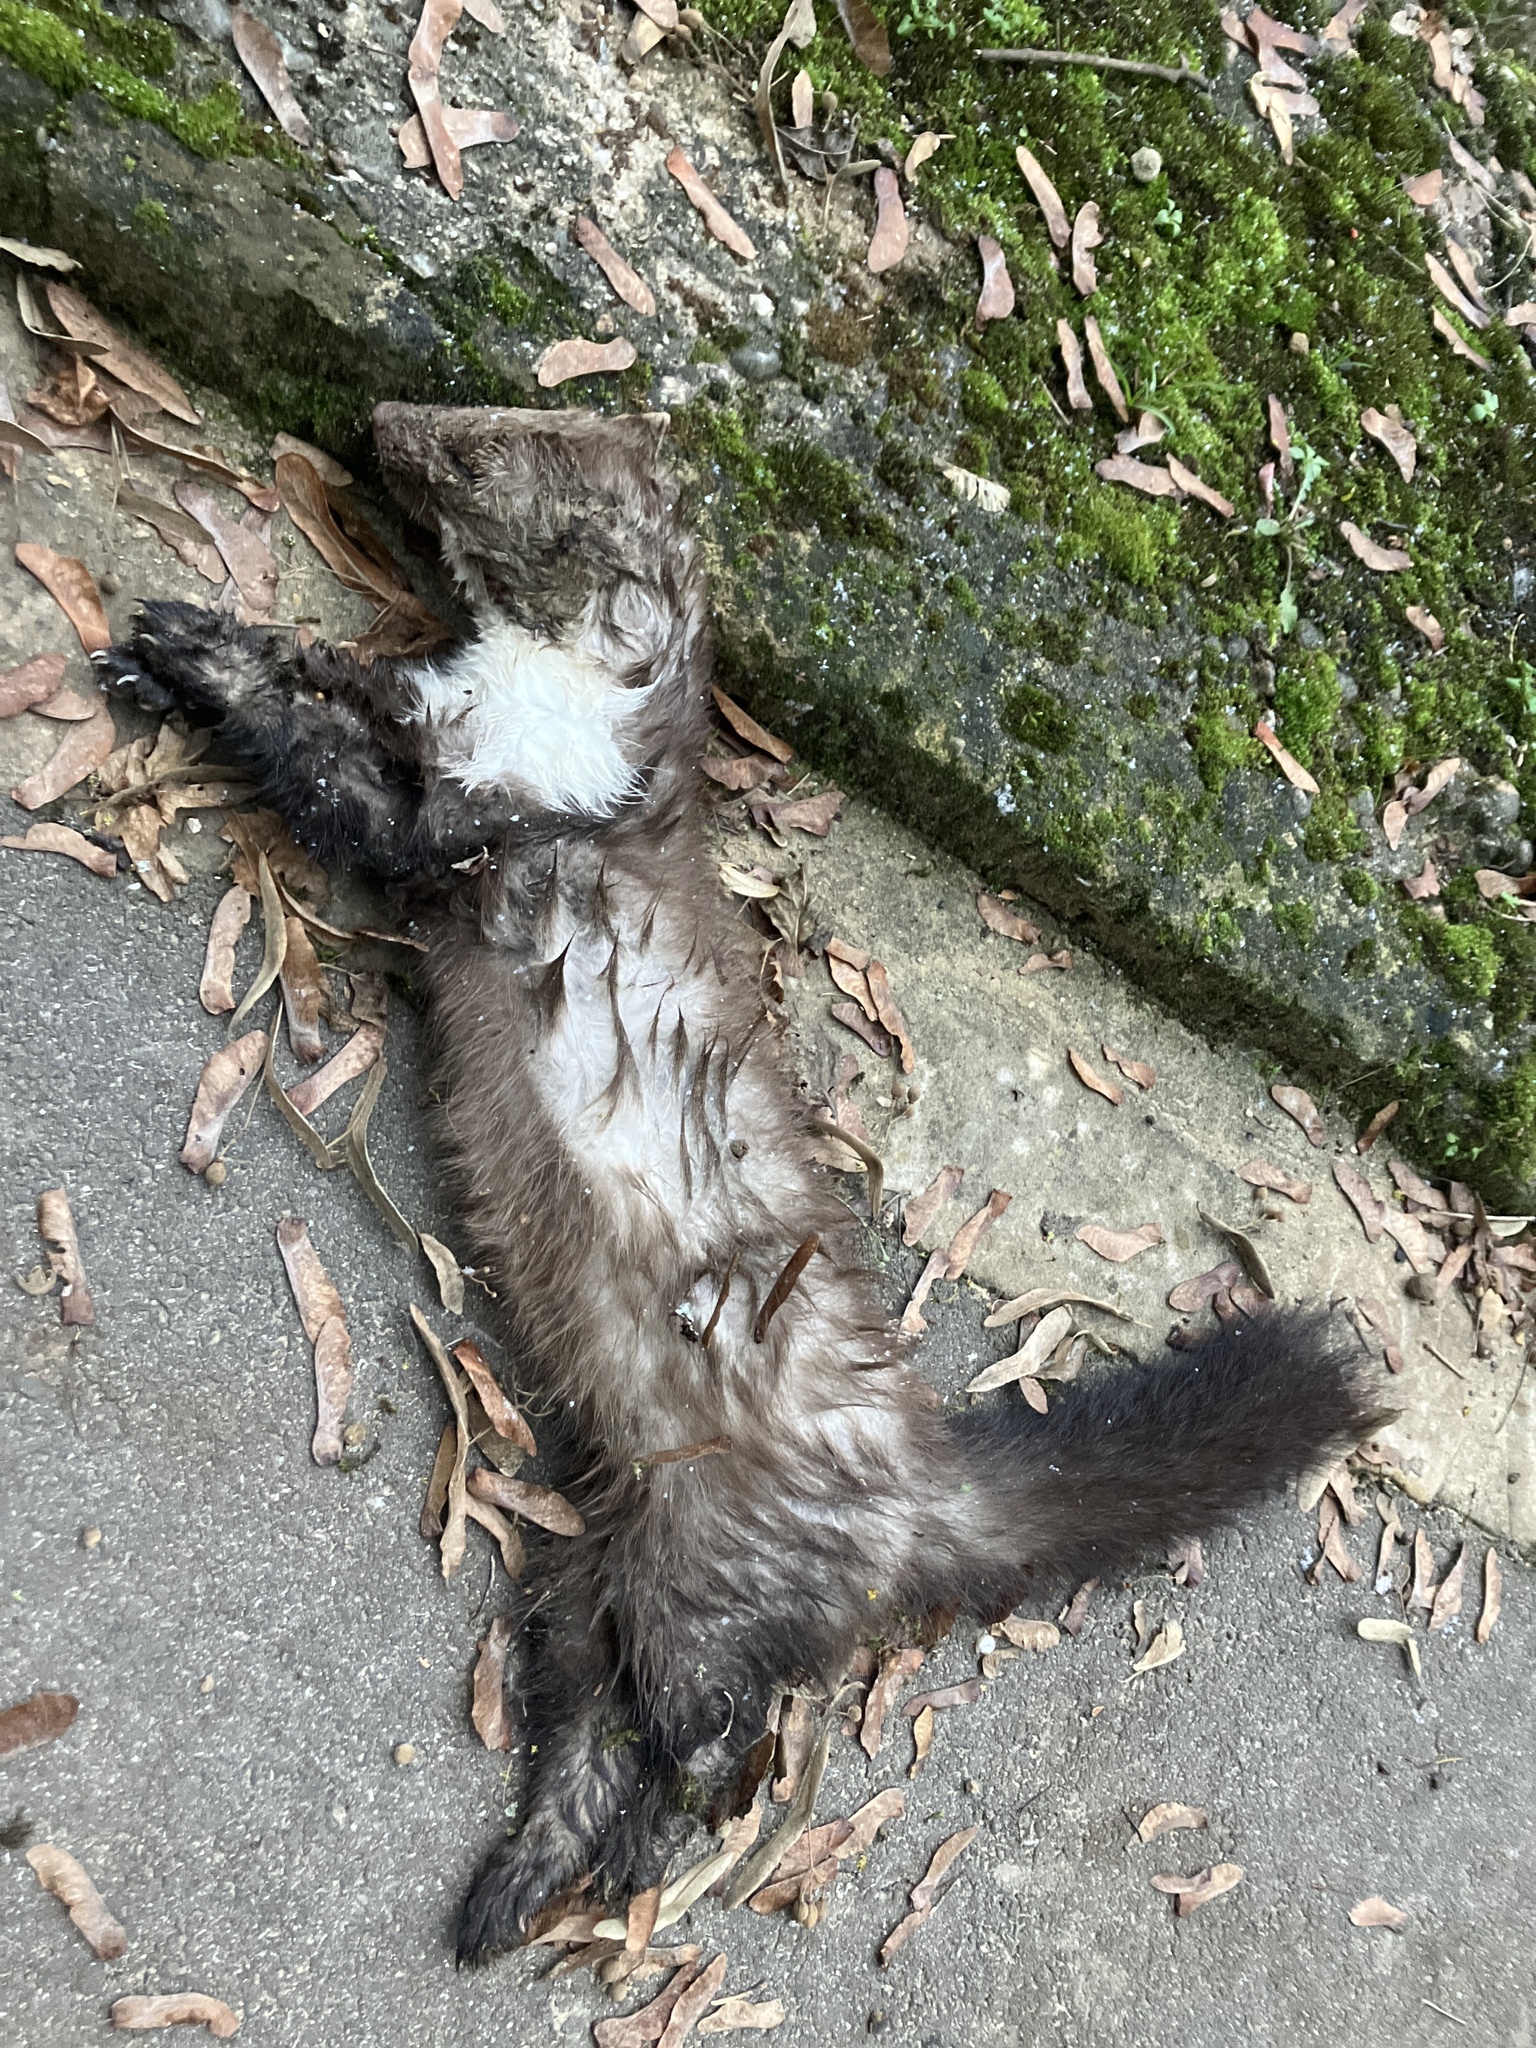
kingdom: Animalia
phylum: Chordata
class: Mammalia
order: Carnivora
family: Mustelidae
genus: Martes
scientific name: Martes foina
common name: Beech marten
